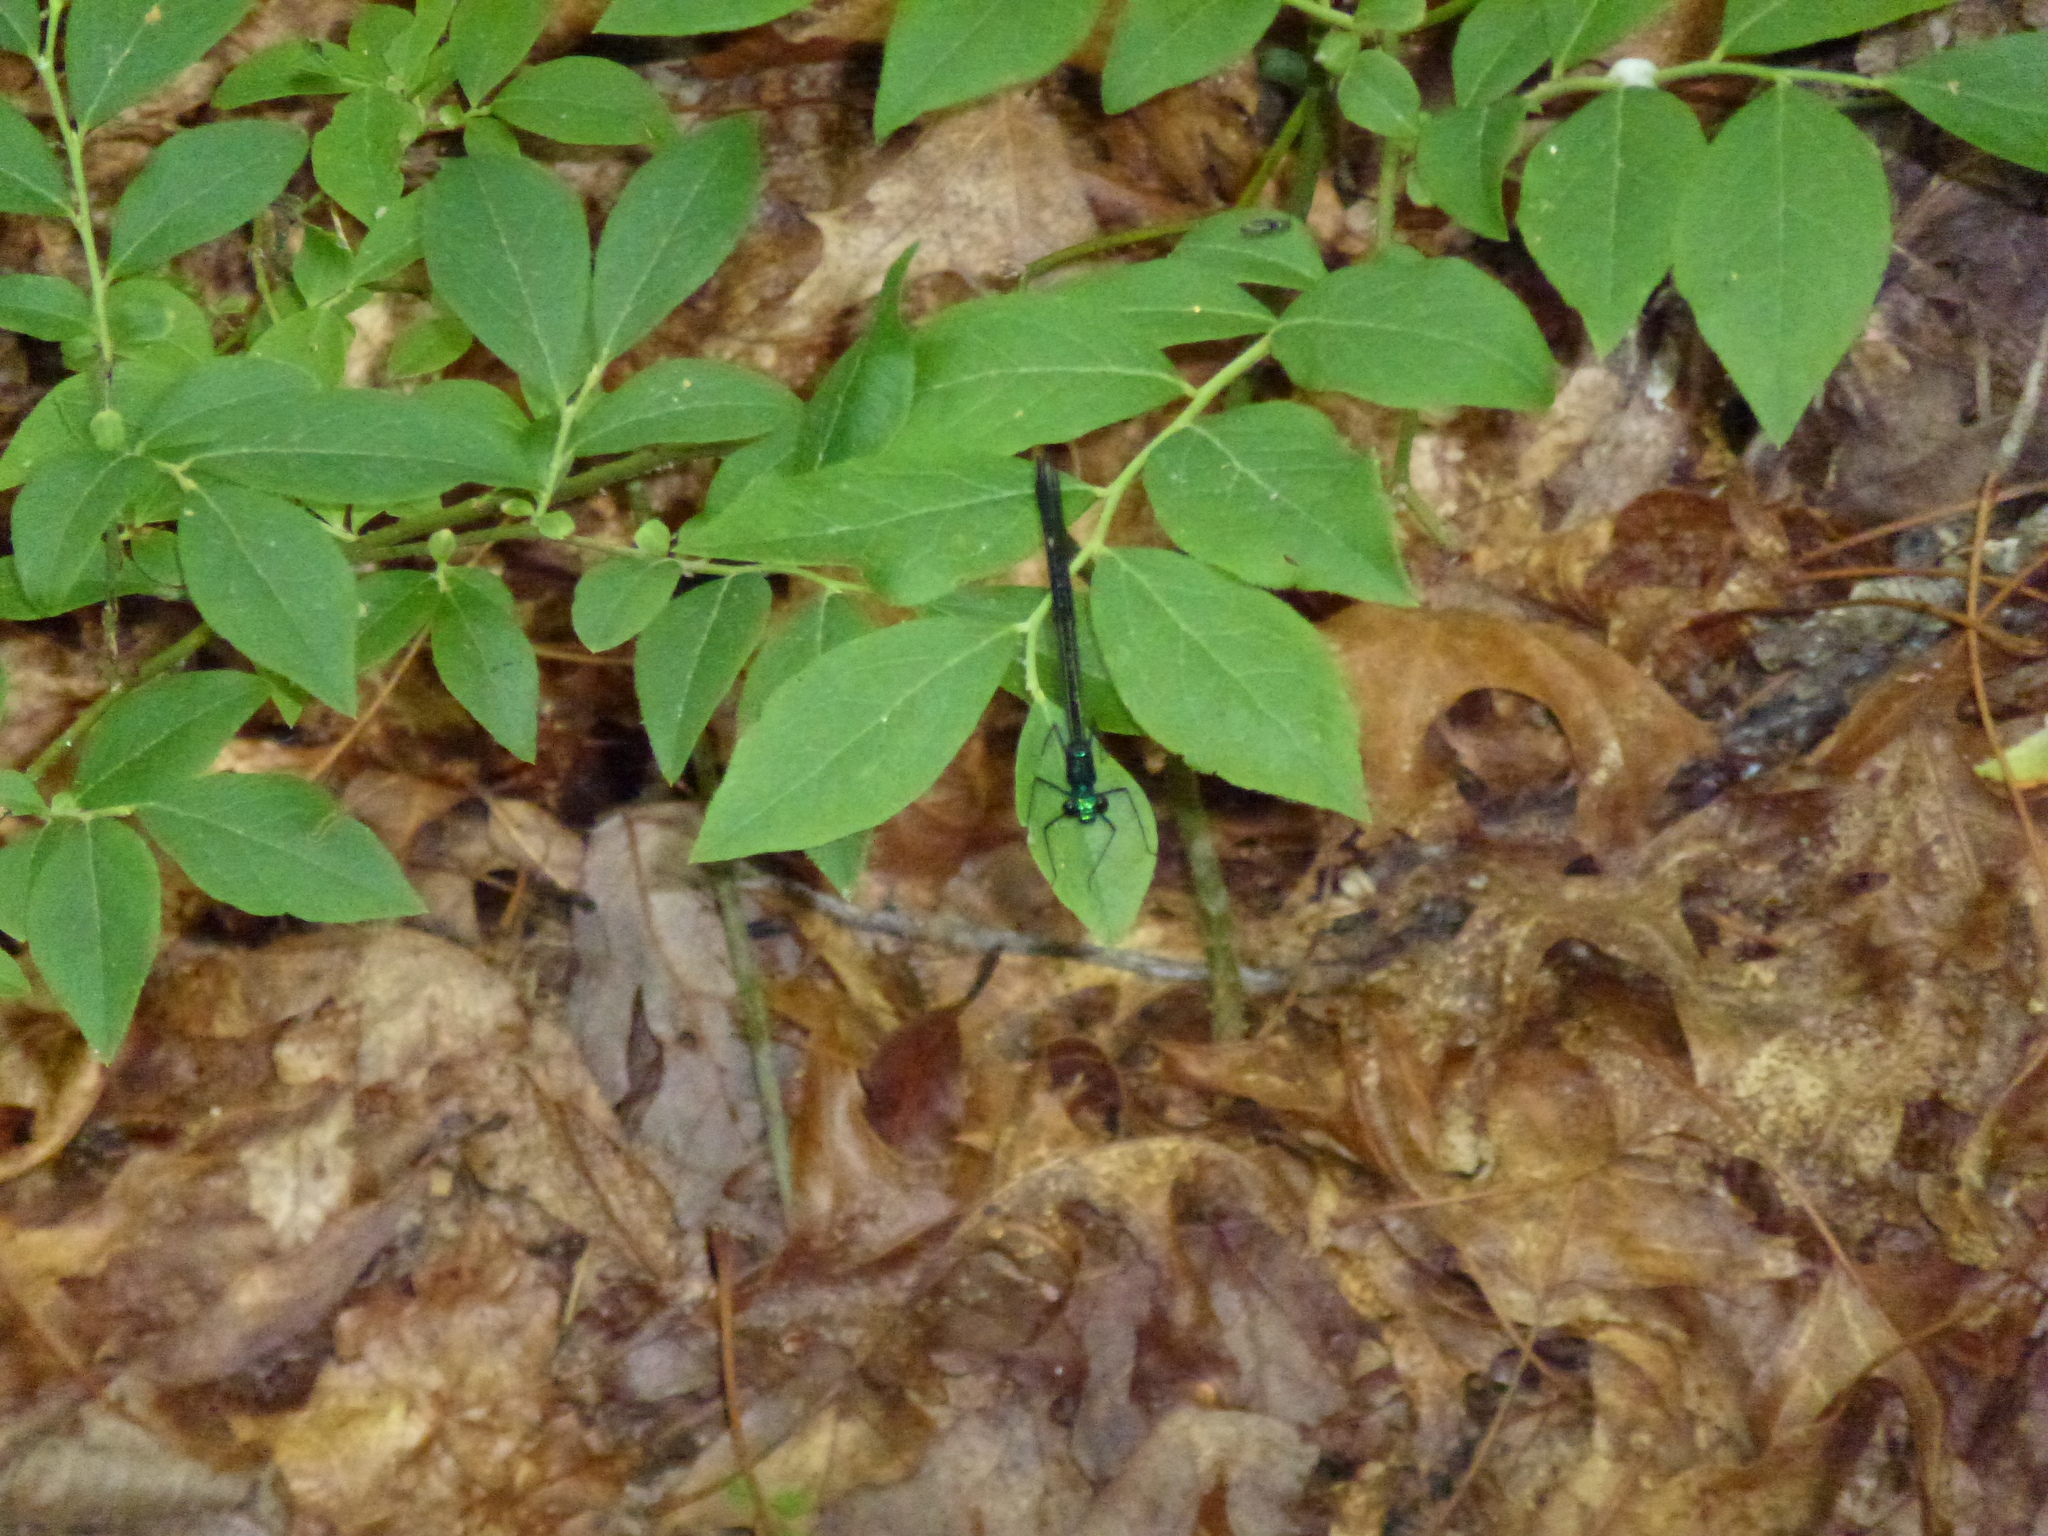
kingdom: Animalia
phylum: Arthropoda
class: Insecta
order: Odonata
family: Calopterygidae
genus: Calopteryx
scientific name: Calopteryx maculata
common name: Ebony jewelwing
